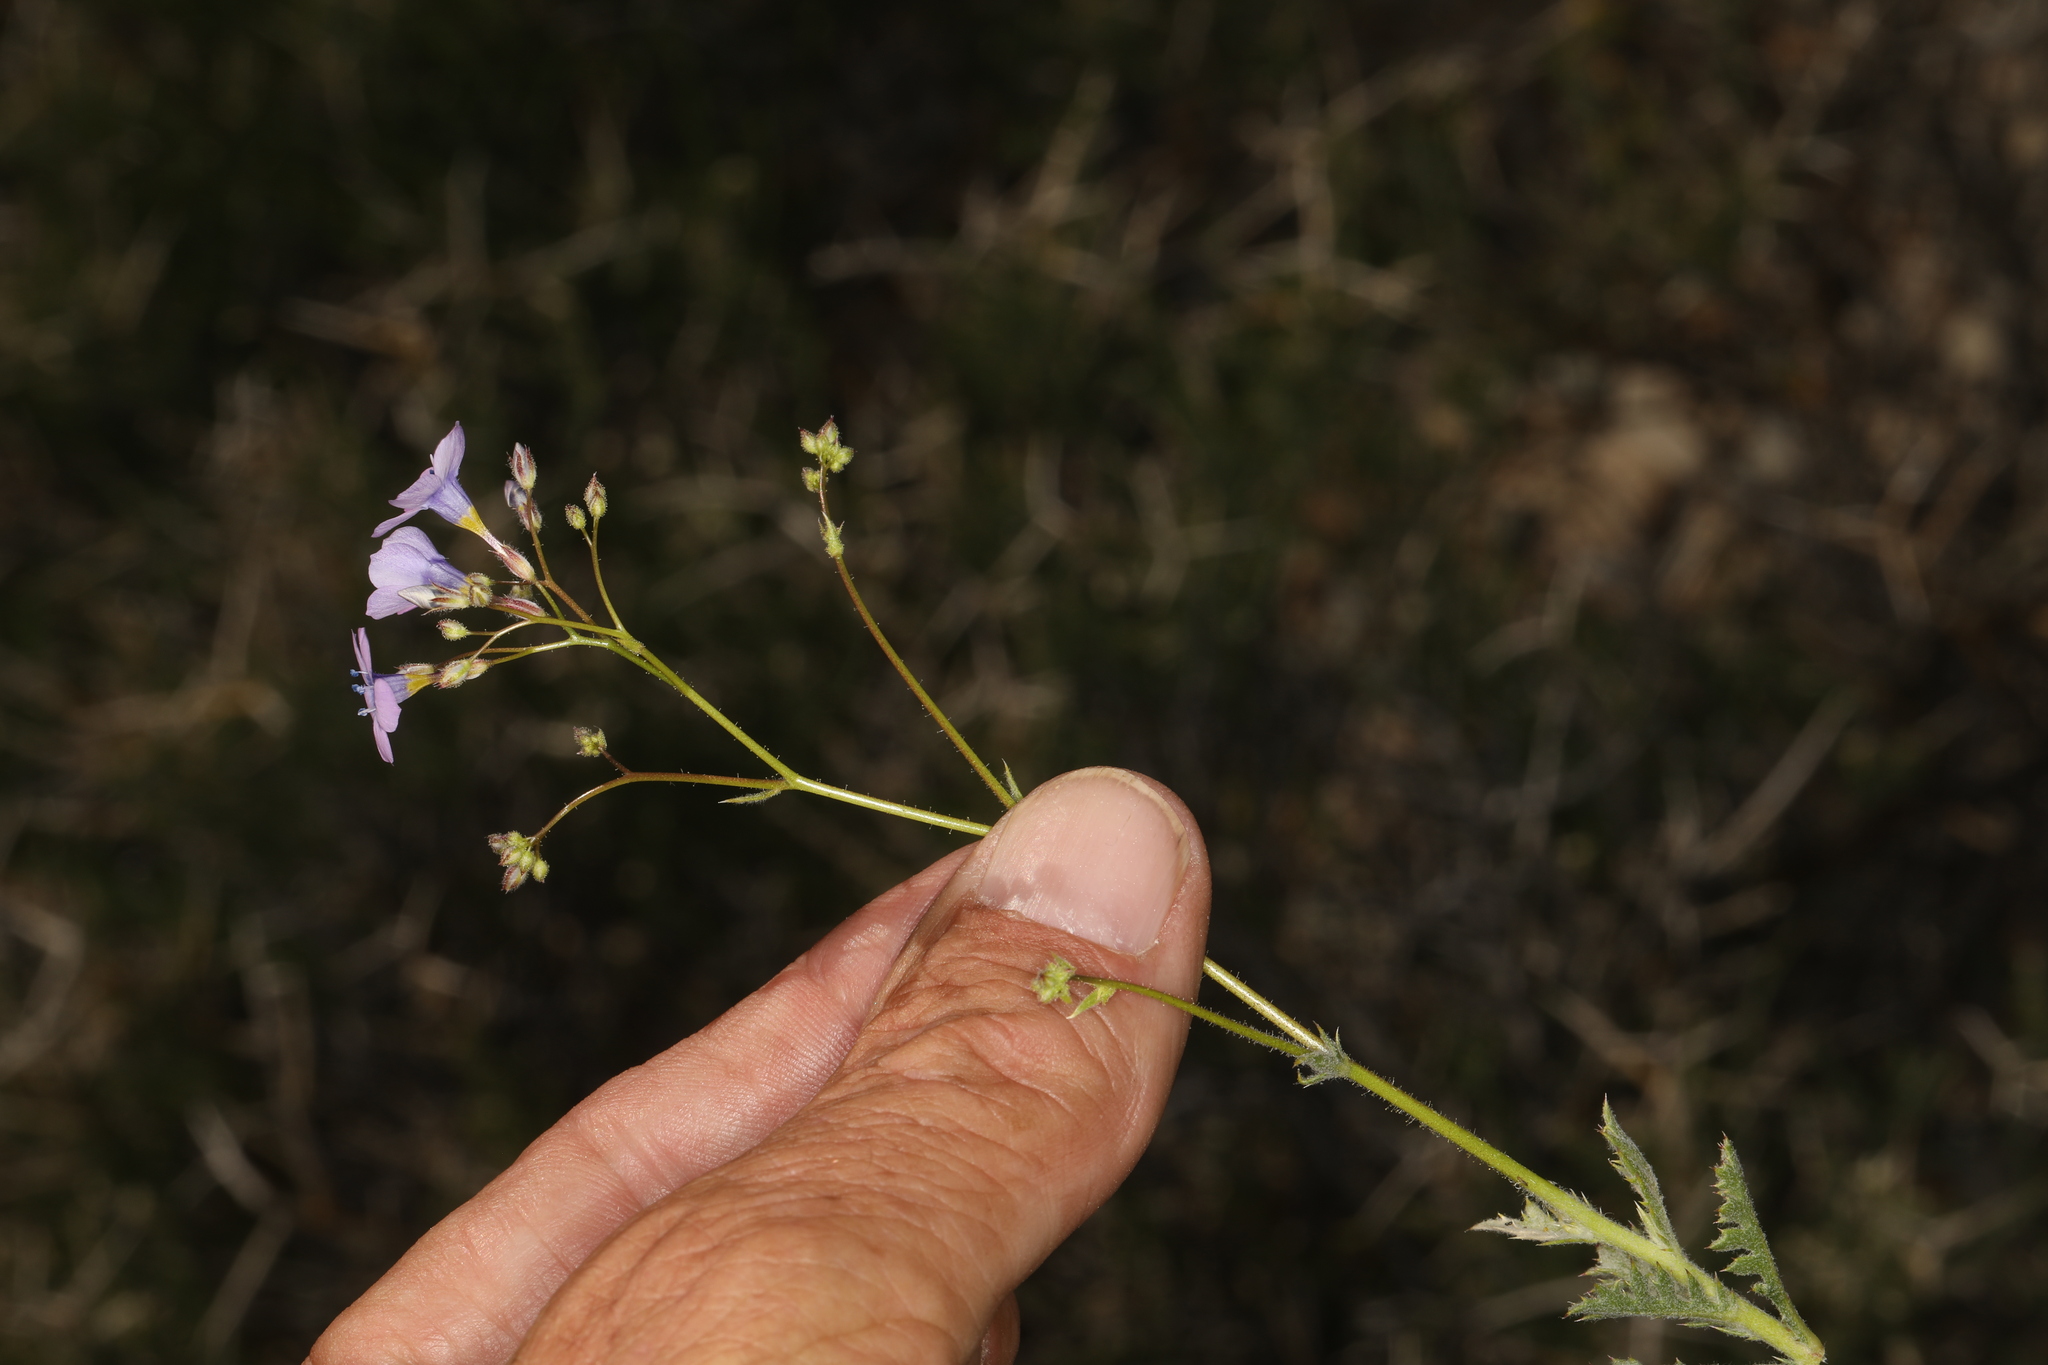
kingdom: Plantae
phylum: Tracheophyta
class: Magnoliopsida
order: Ericales
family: Polemoniaceae
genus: Gilia
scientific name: Gilia cana
